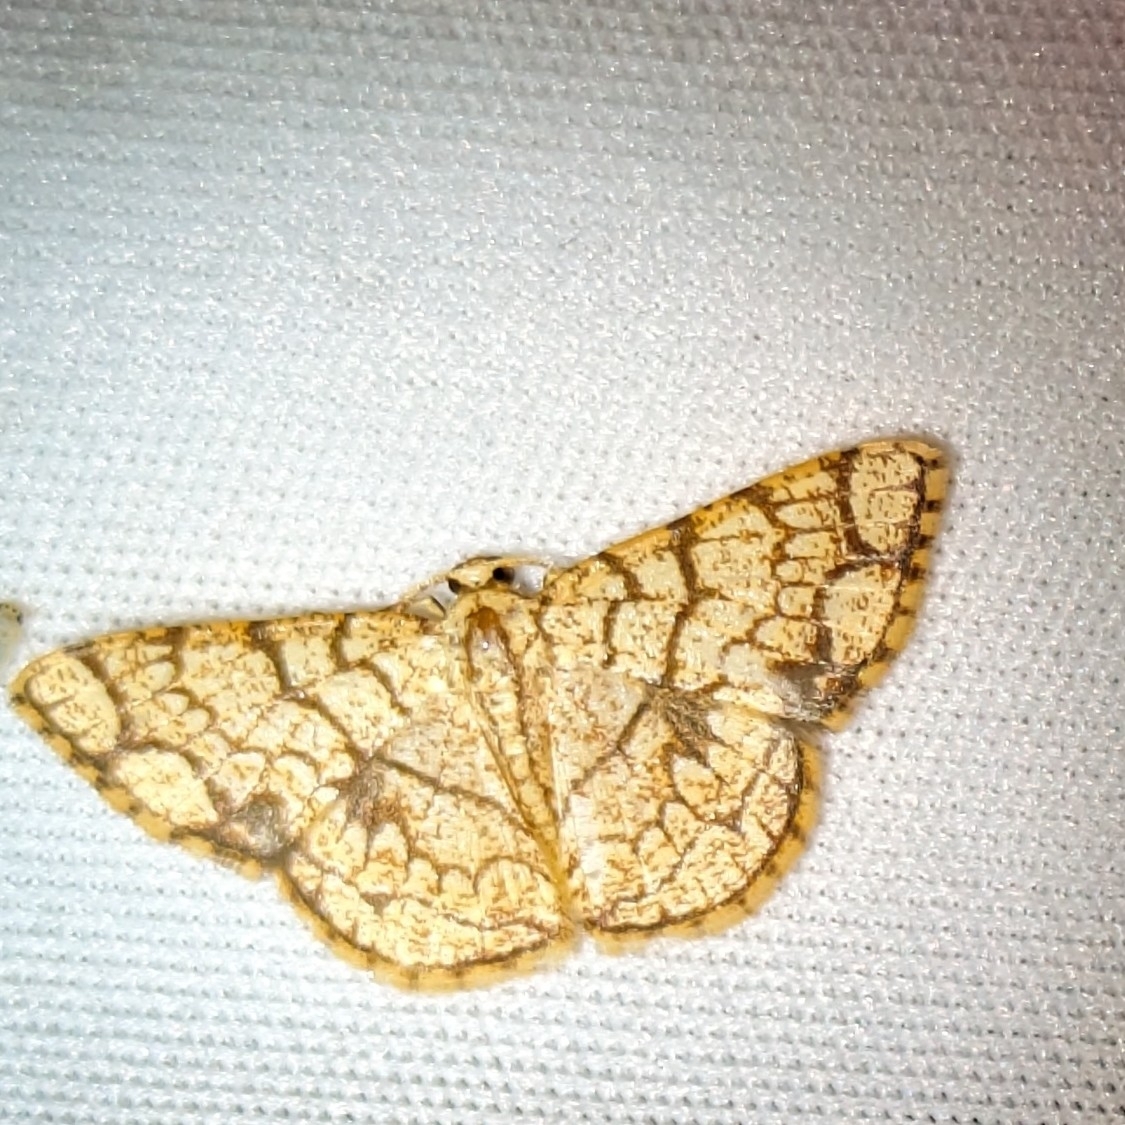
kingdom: Animalia
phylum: Arthropoda
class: Insecta
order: Lepidoptera
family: Geometridae
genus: Heterostegane
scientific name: Heterostegane subtessellata
